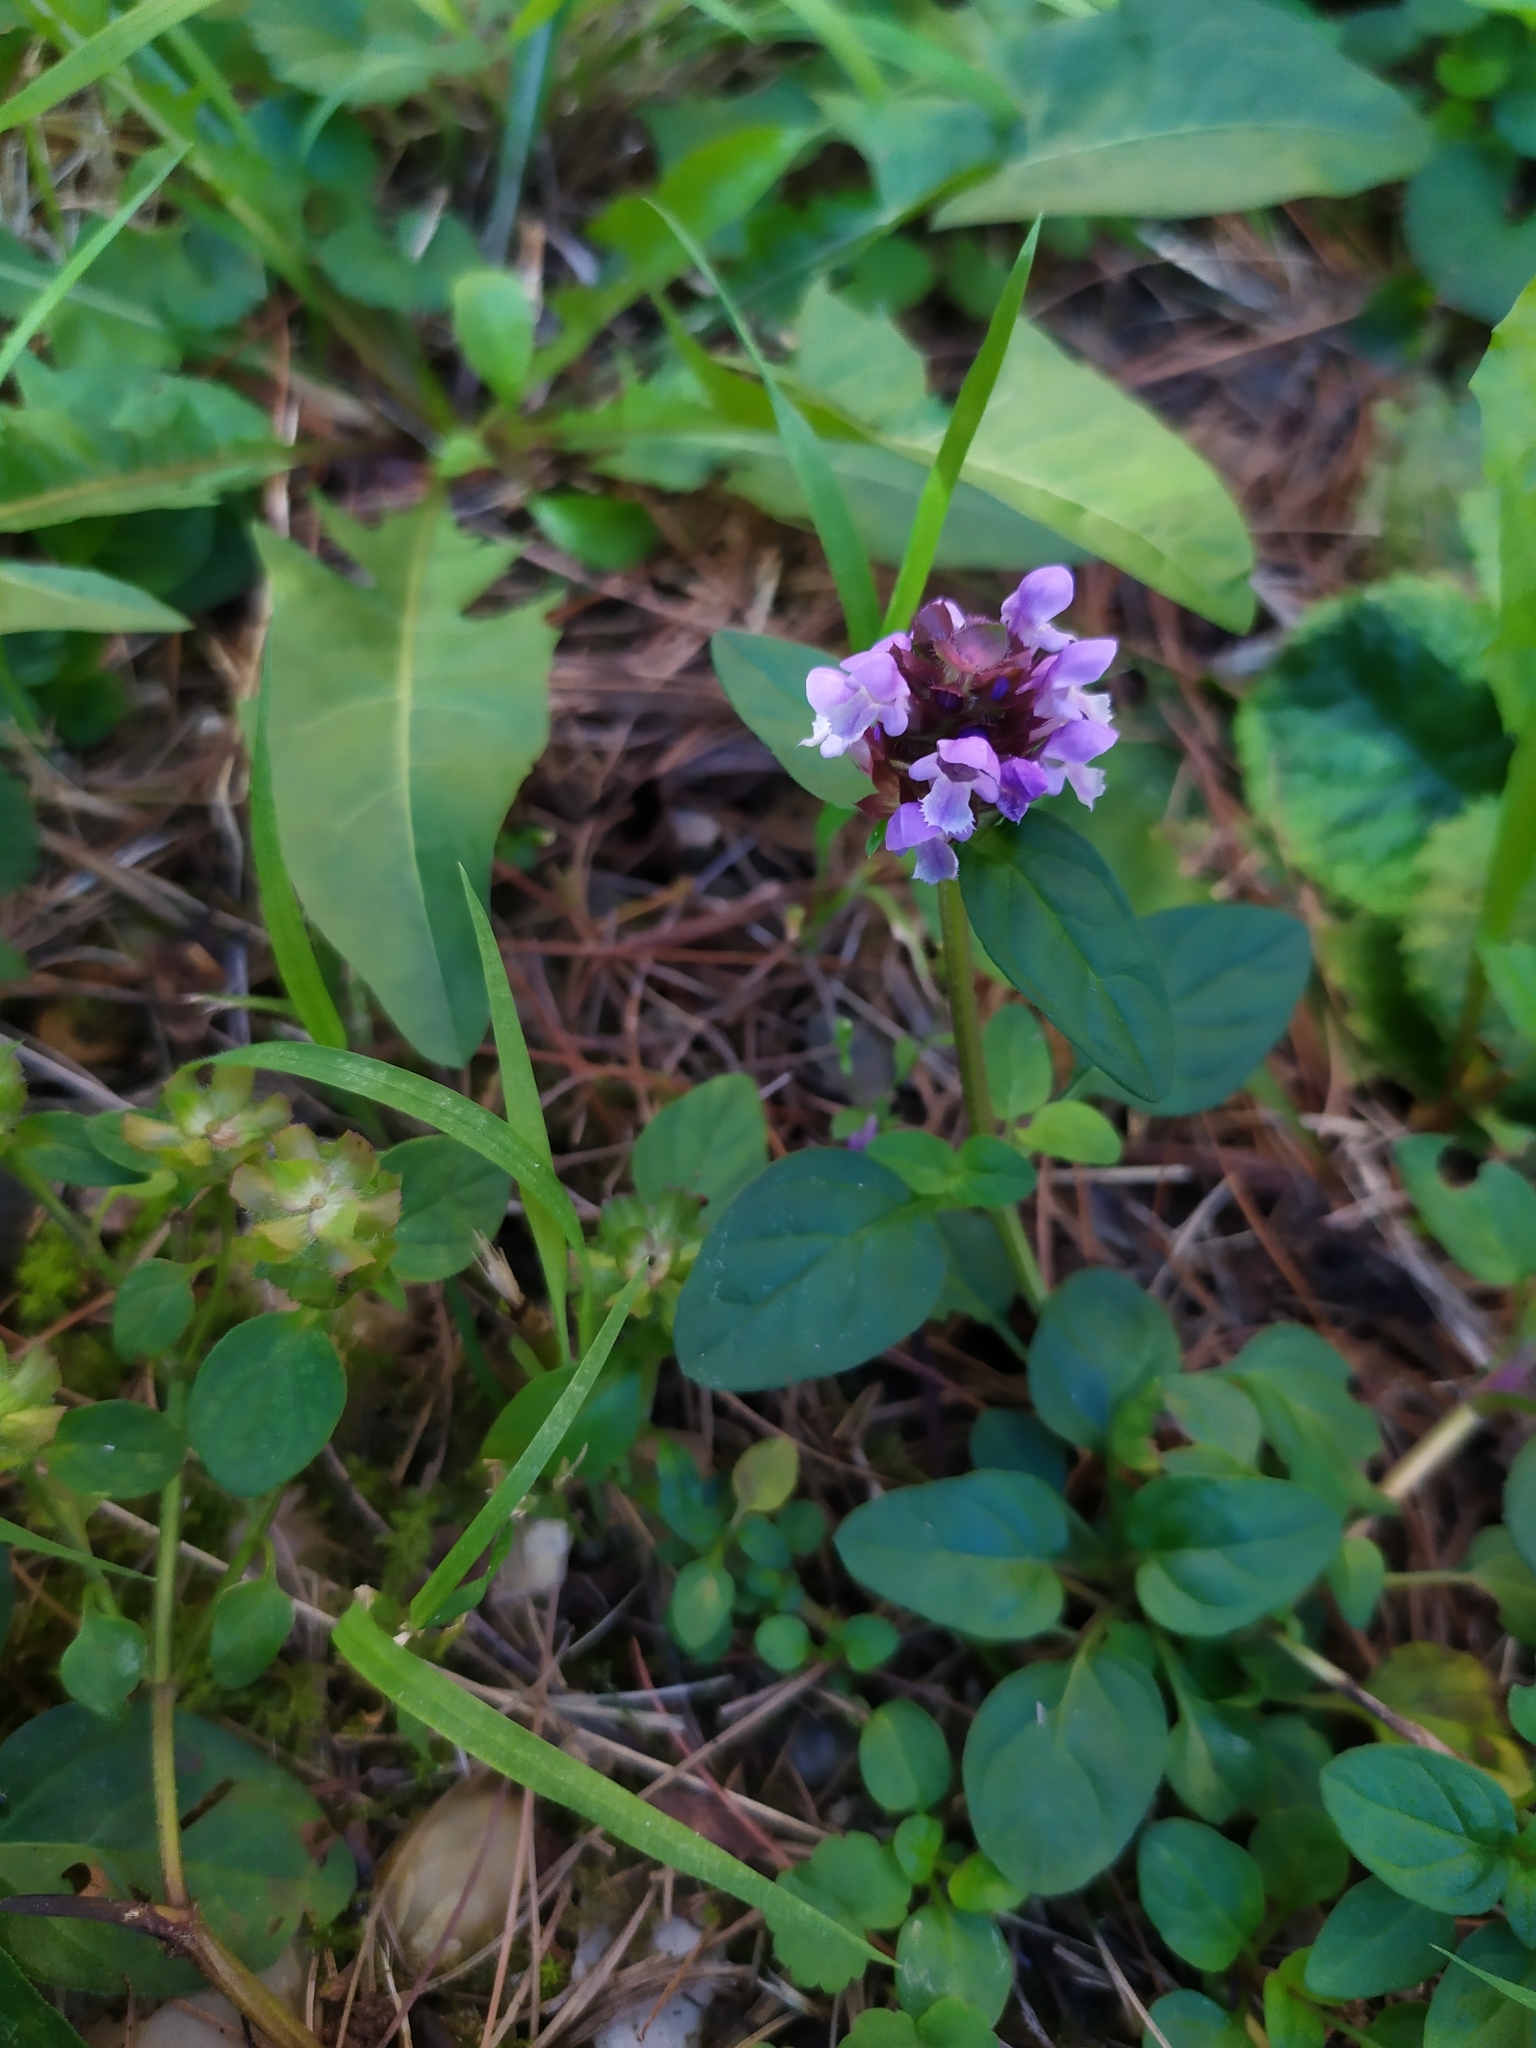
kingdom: Plantae
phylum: Tracheophyta
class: Magnoliopsida
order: Lamiales
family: Lamiaceae
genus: Prunella
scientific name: Prunella vulgaris
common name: Heal-all
